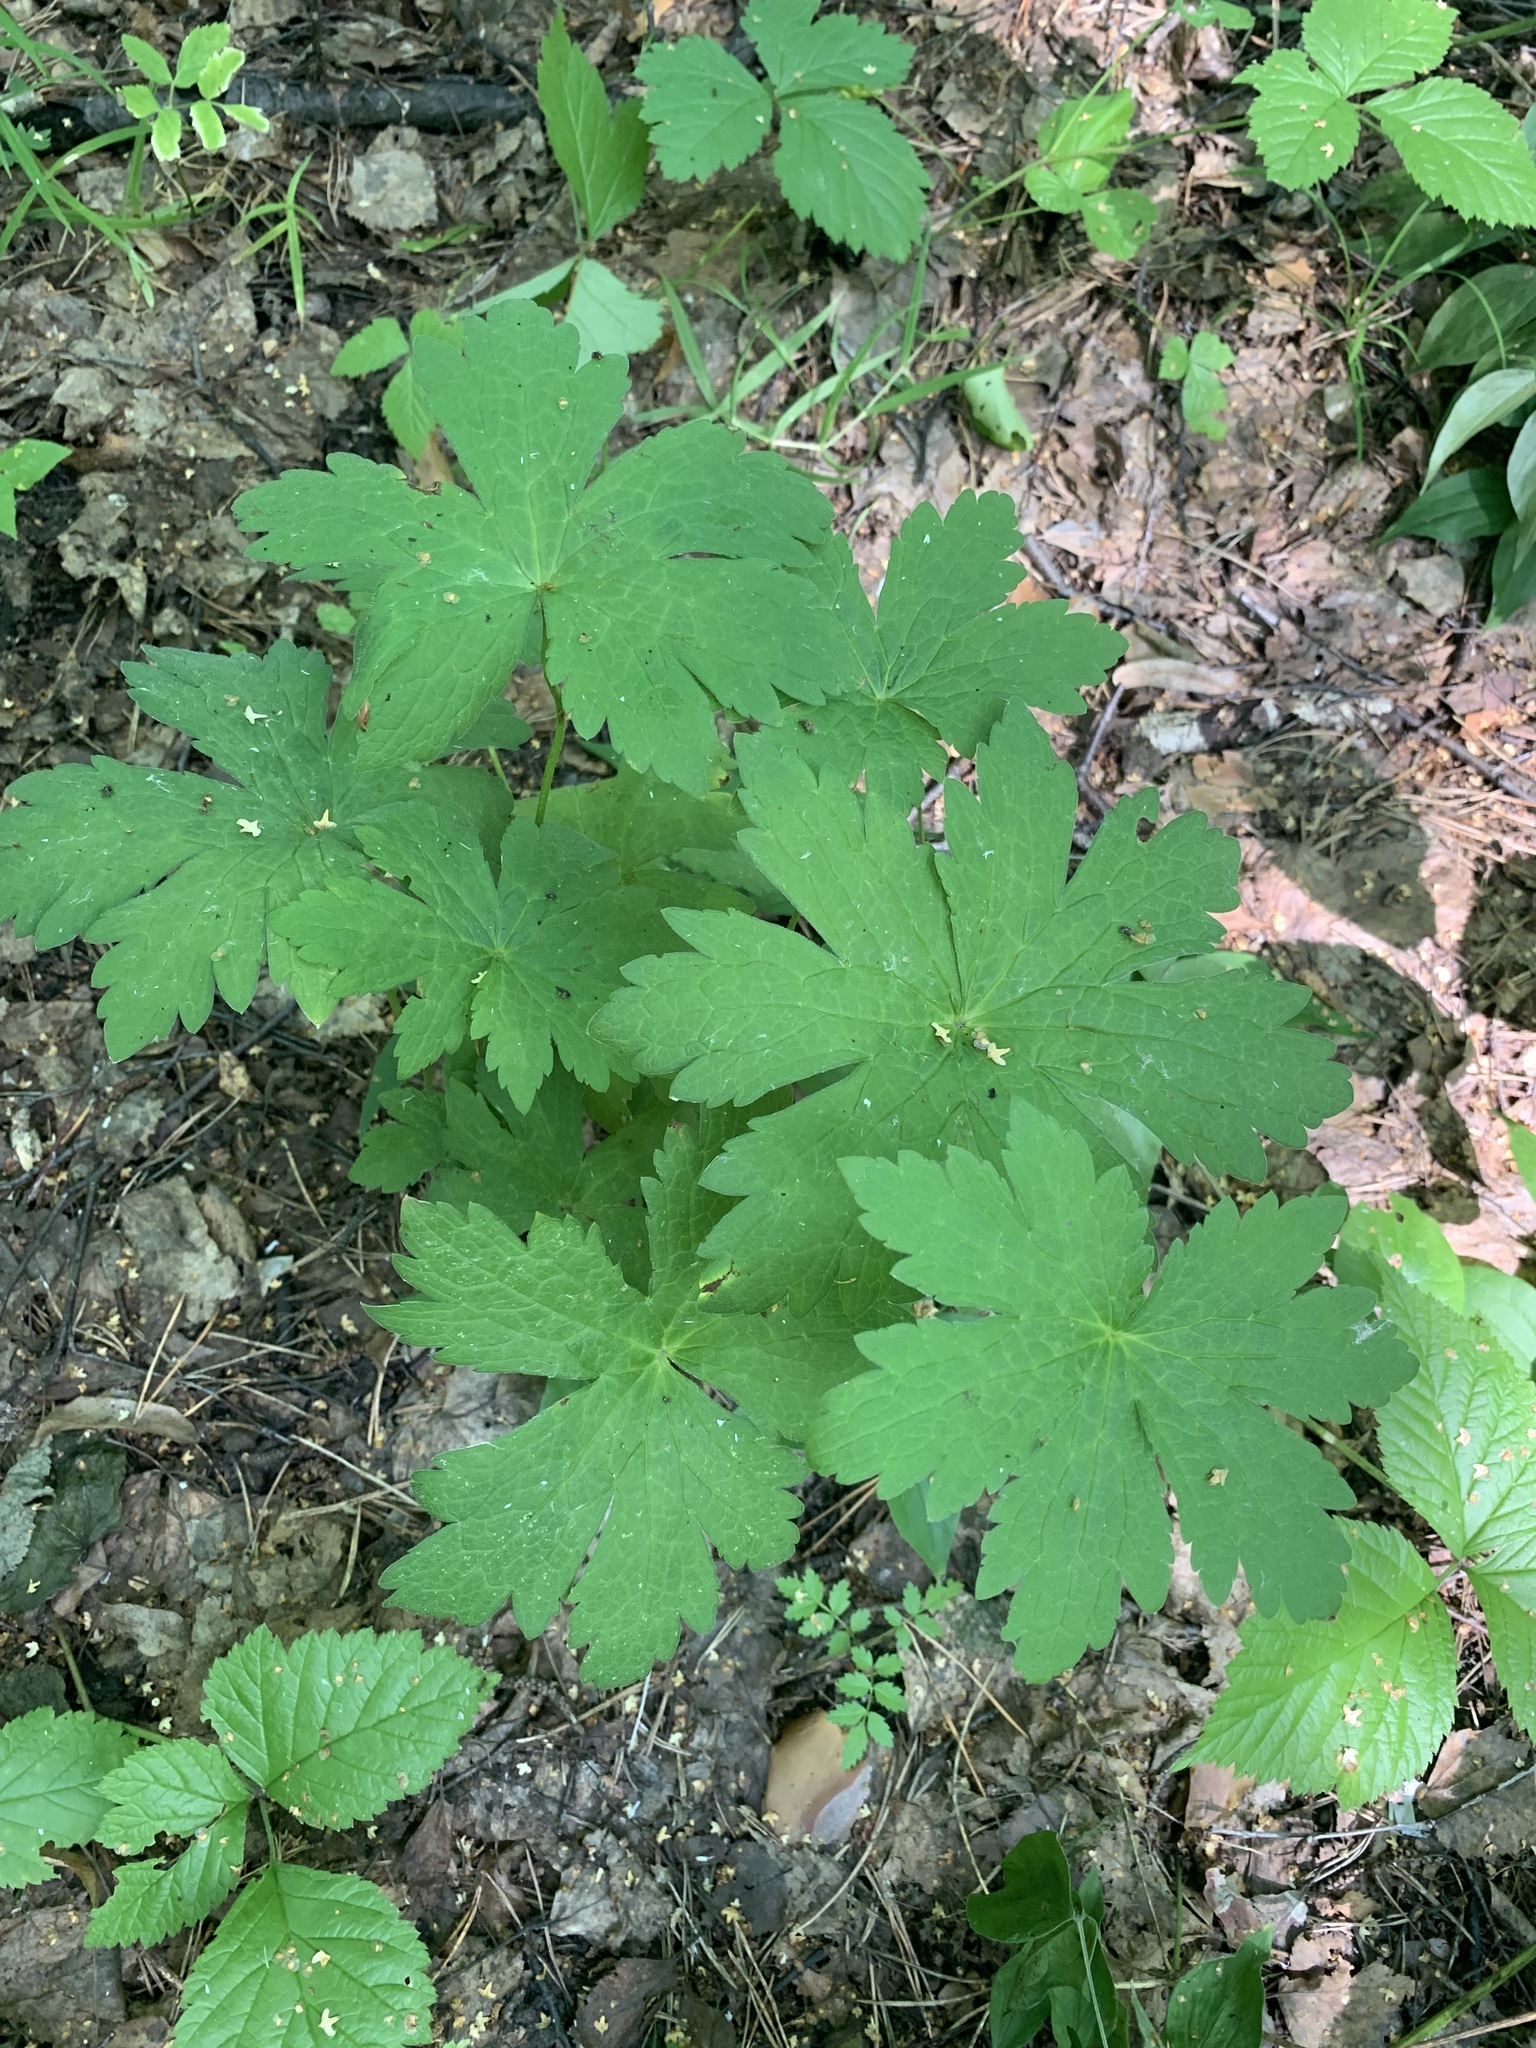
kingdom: Plantae
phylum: Tracheophyta
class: Magnoliopsida
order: Geraniales
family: Geraniaceae
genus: Geranium
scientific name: Geranium sylvaticum
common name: Wood crane's-bill
